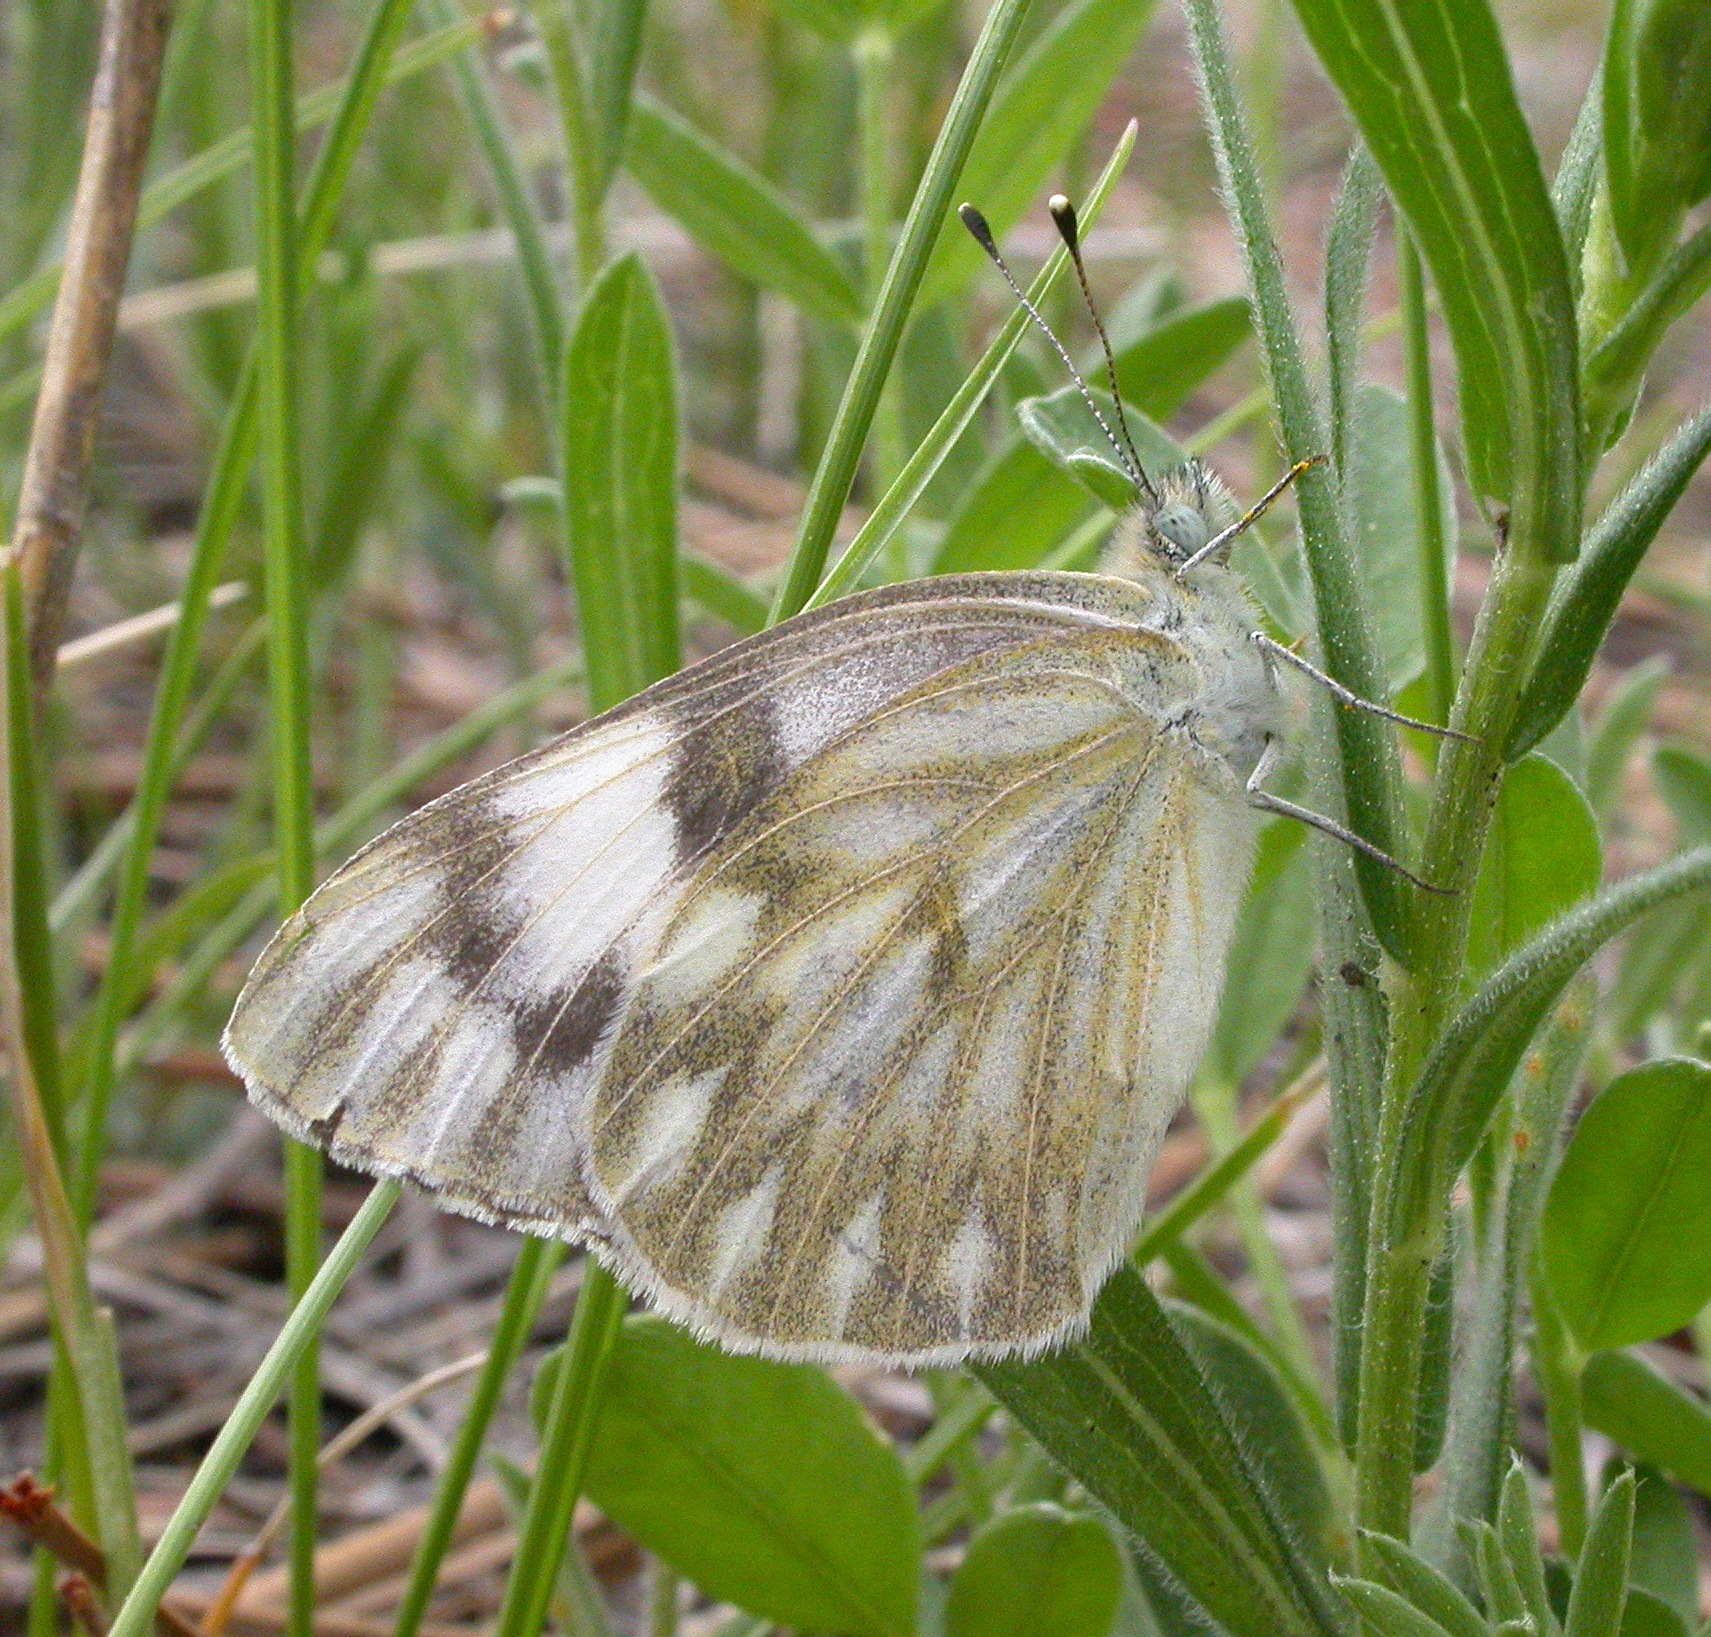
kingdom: Animalia
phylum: Arthropoda
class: Insecta
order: Lepidoptera
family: Pieridae
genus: Pontia
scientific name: Pontia protodice
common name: Checkered white
